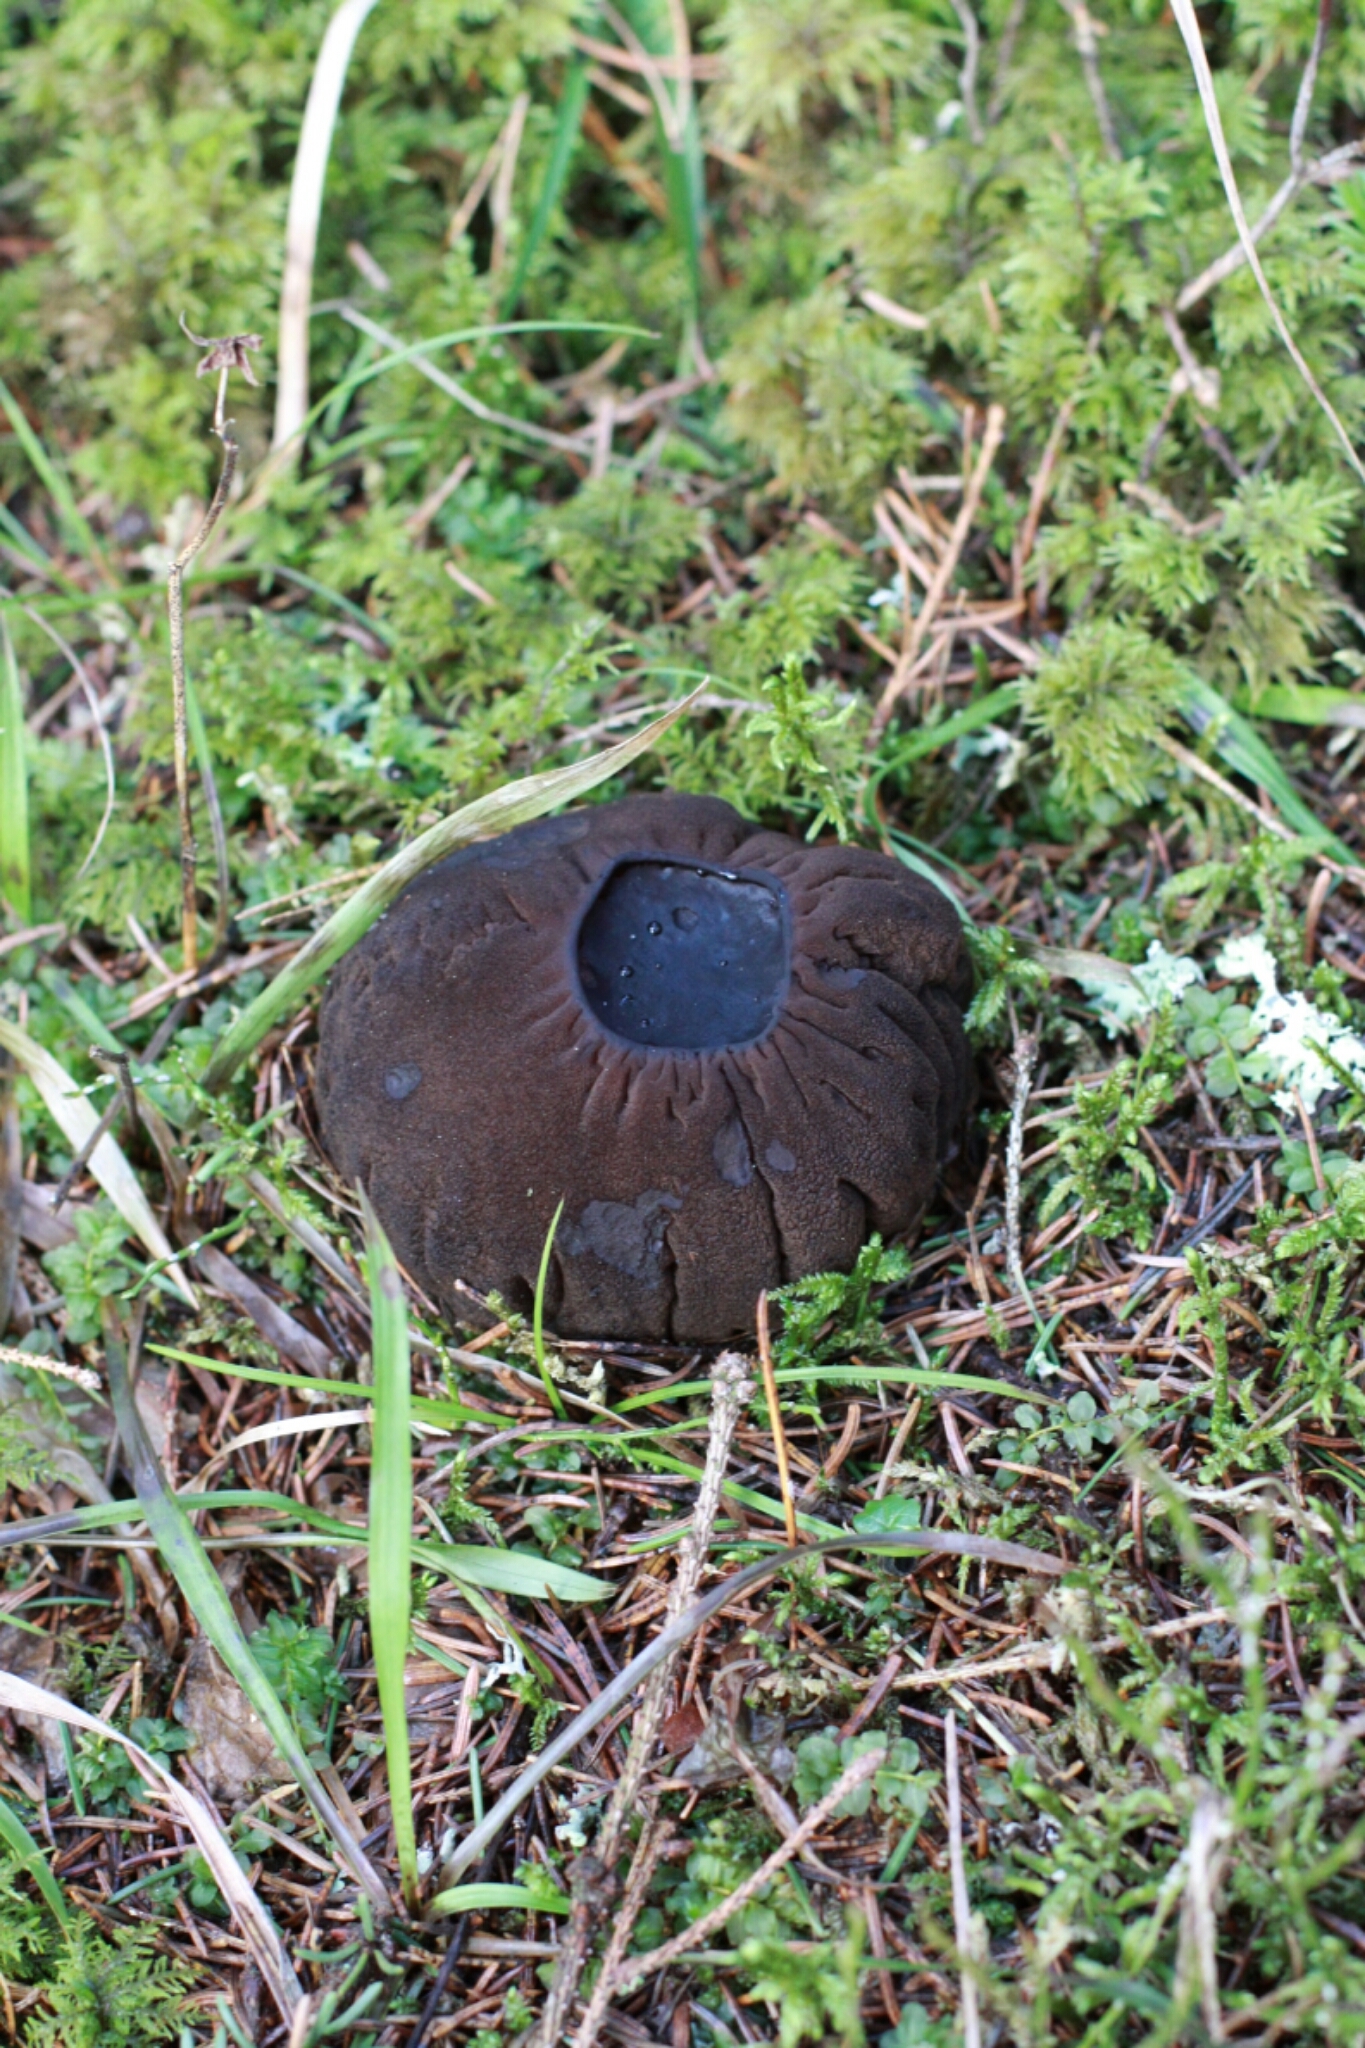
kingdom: Fungi
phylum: Ascomycota
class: Pezizomycetes
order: Pezizales
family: Sarcosomataceae
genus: Sarcosoma
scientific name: Sarcosoma globosum
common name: Charred-pancake cup
